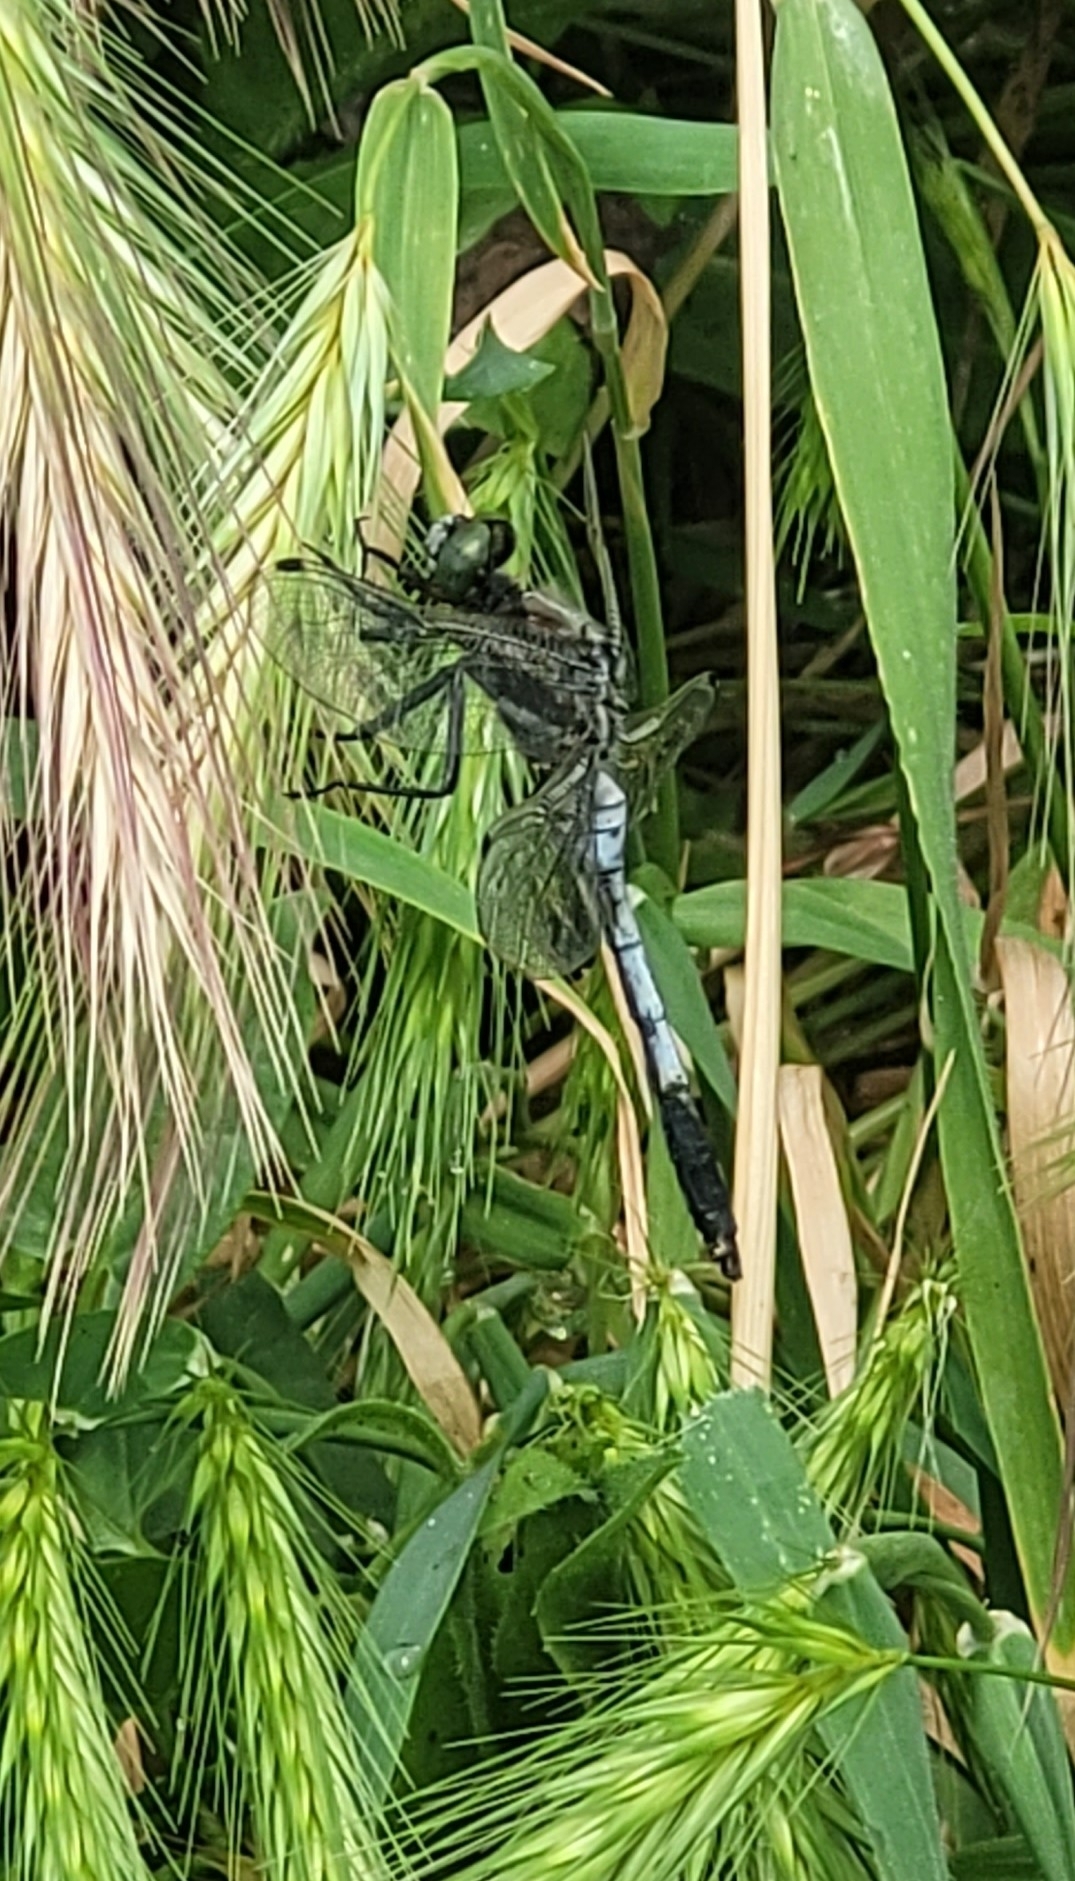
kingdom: Animalia
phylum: Arthropoda
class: Insecta
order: Odonata
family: Libellulidae
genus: Orthetrum
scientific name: Orthetrum albistylum
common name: White-tailed skimmer
